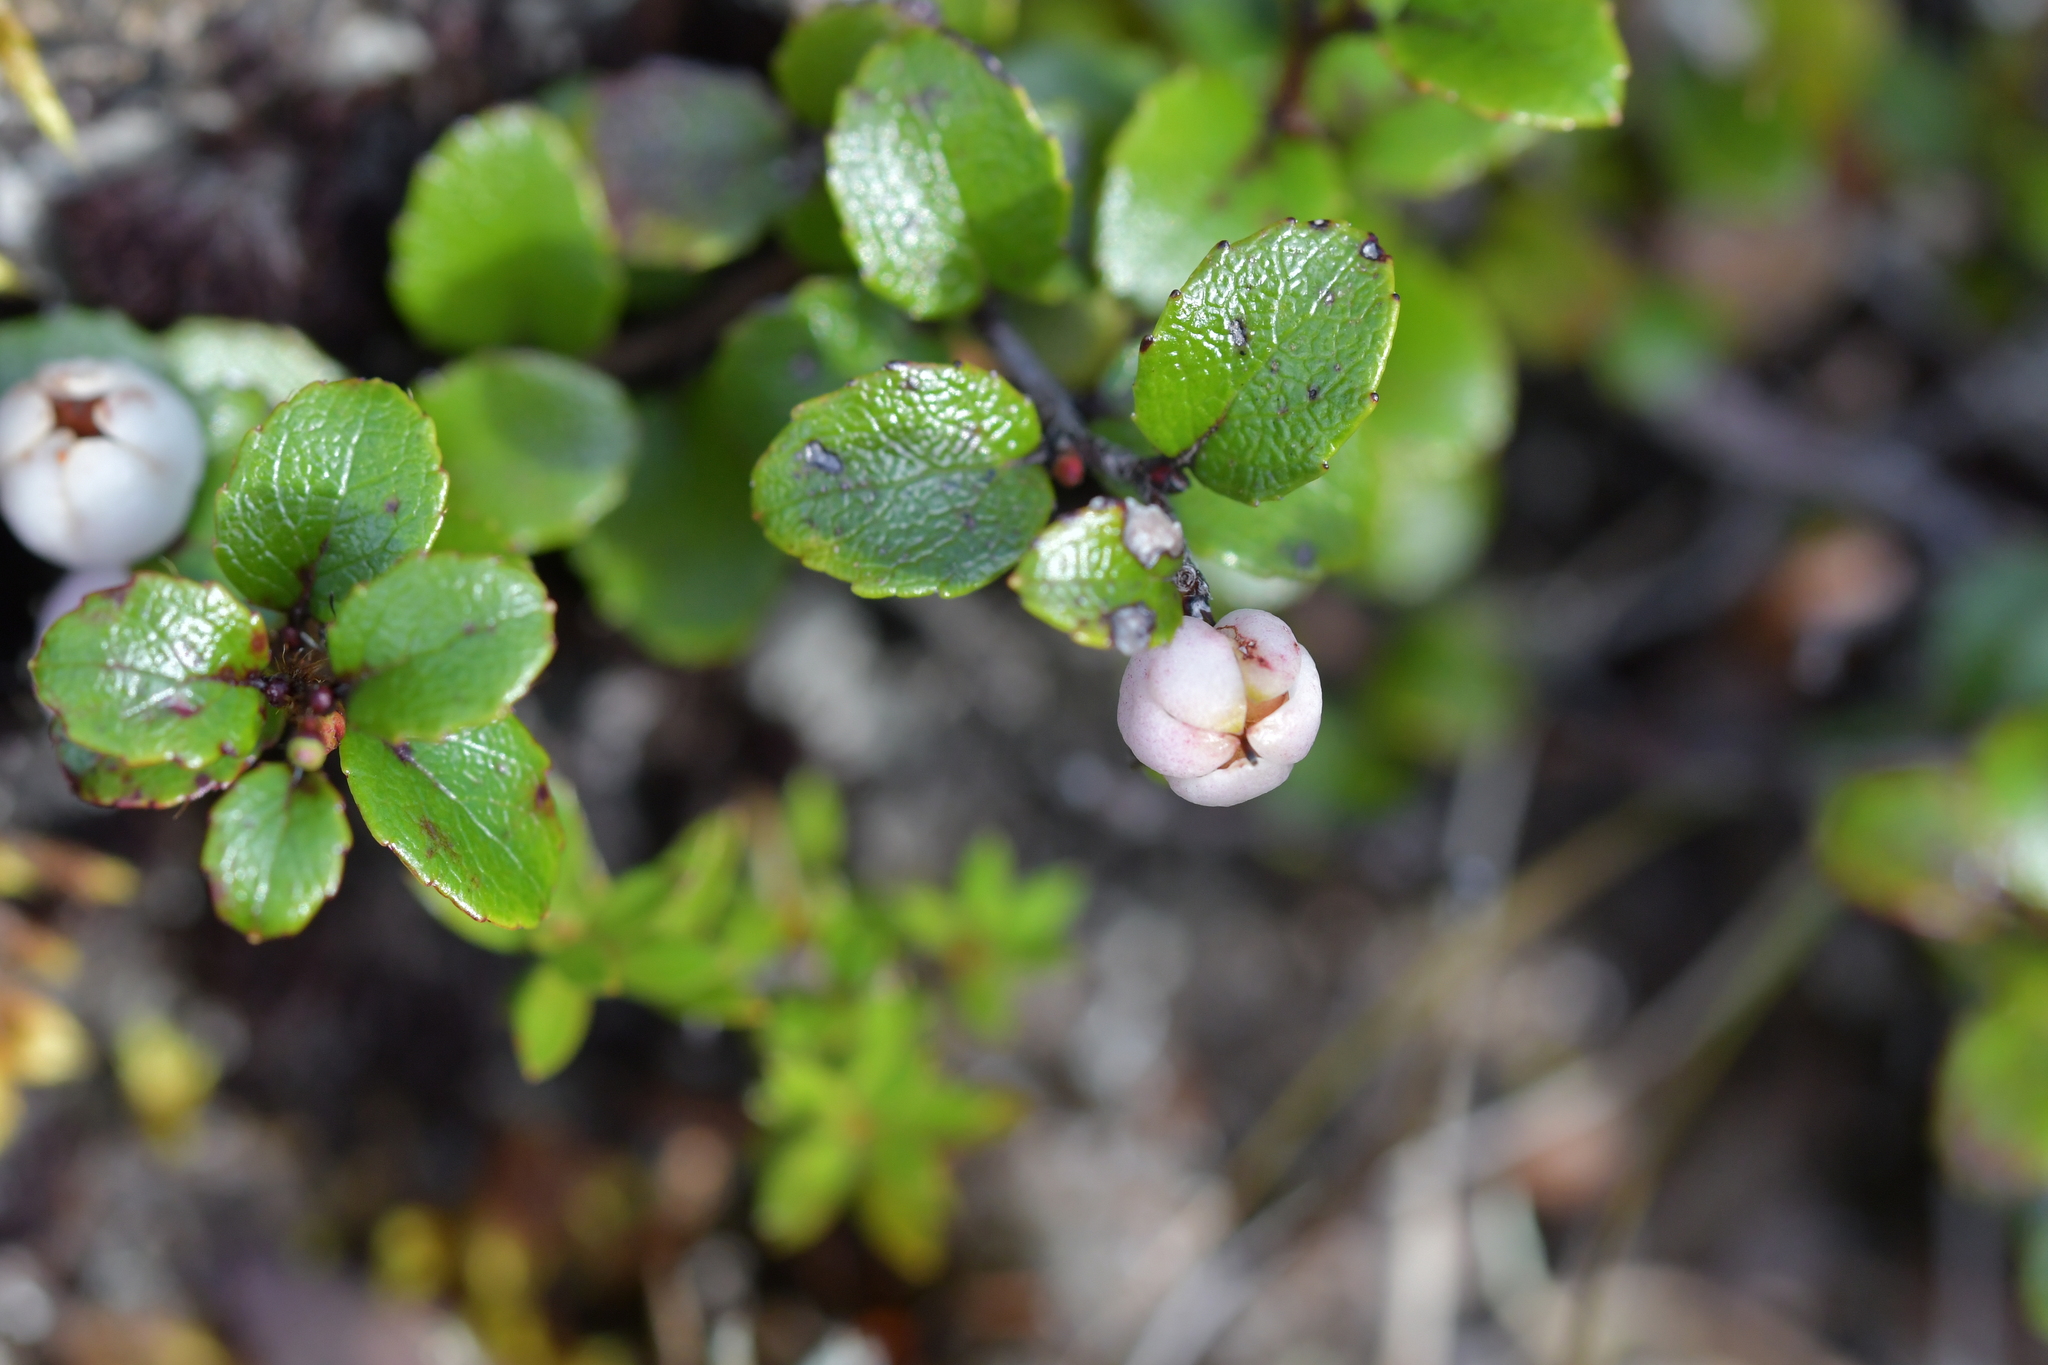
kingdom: Plantae
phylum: Tracheophyta
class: Magnoliopsida
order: Ericales
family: Ericaceae
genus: Gaultheria
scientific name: Gaultheria depressa
